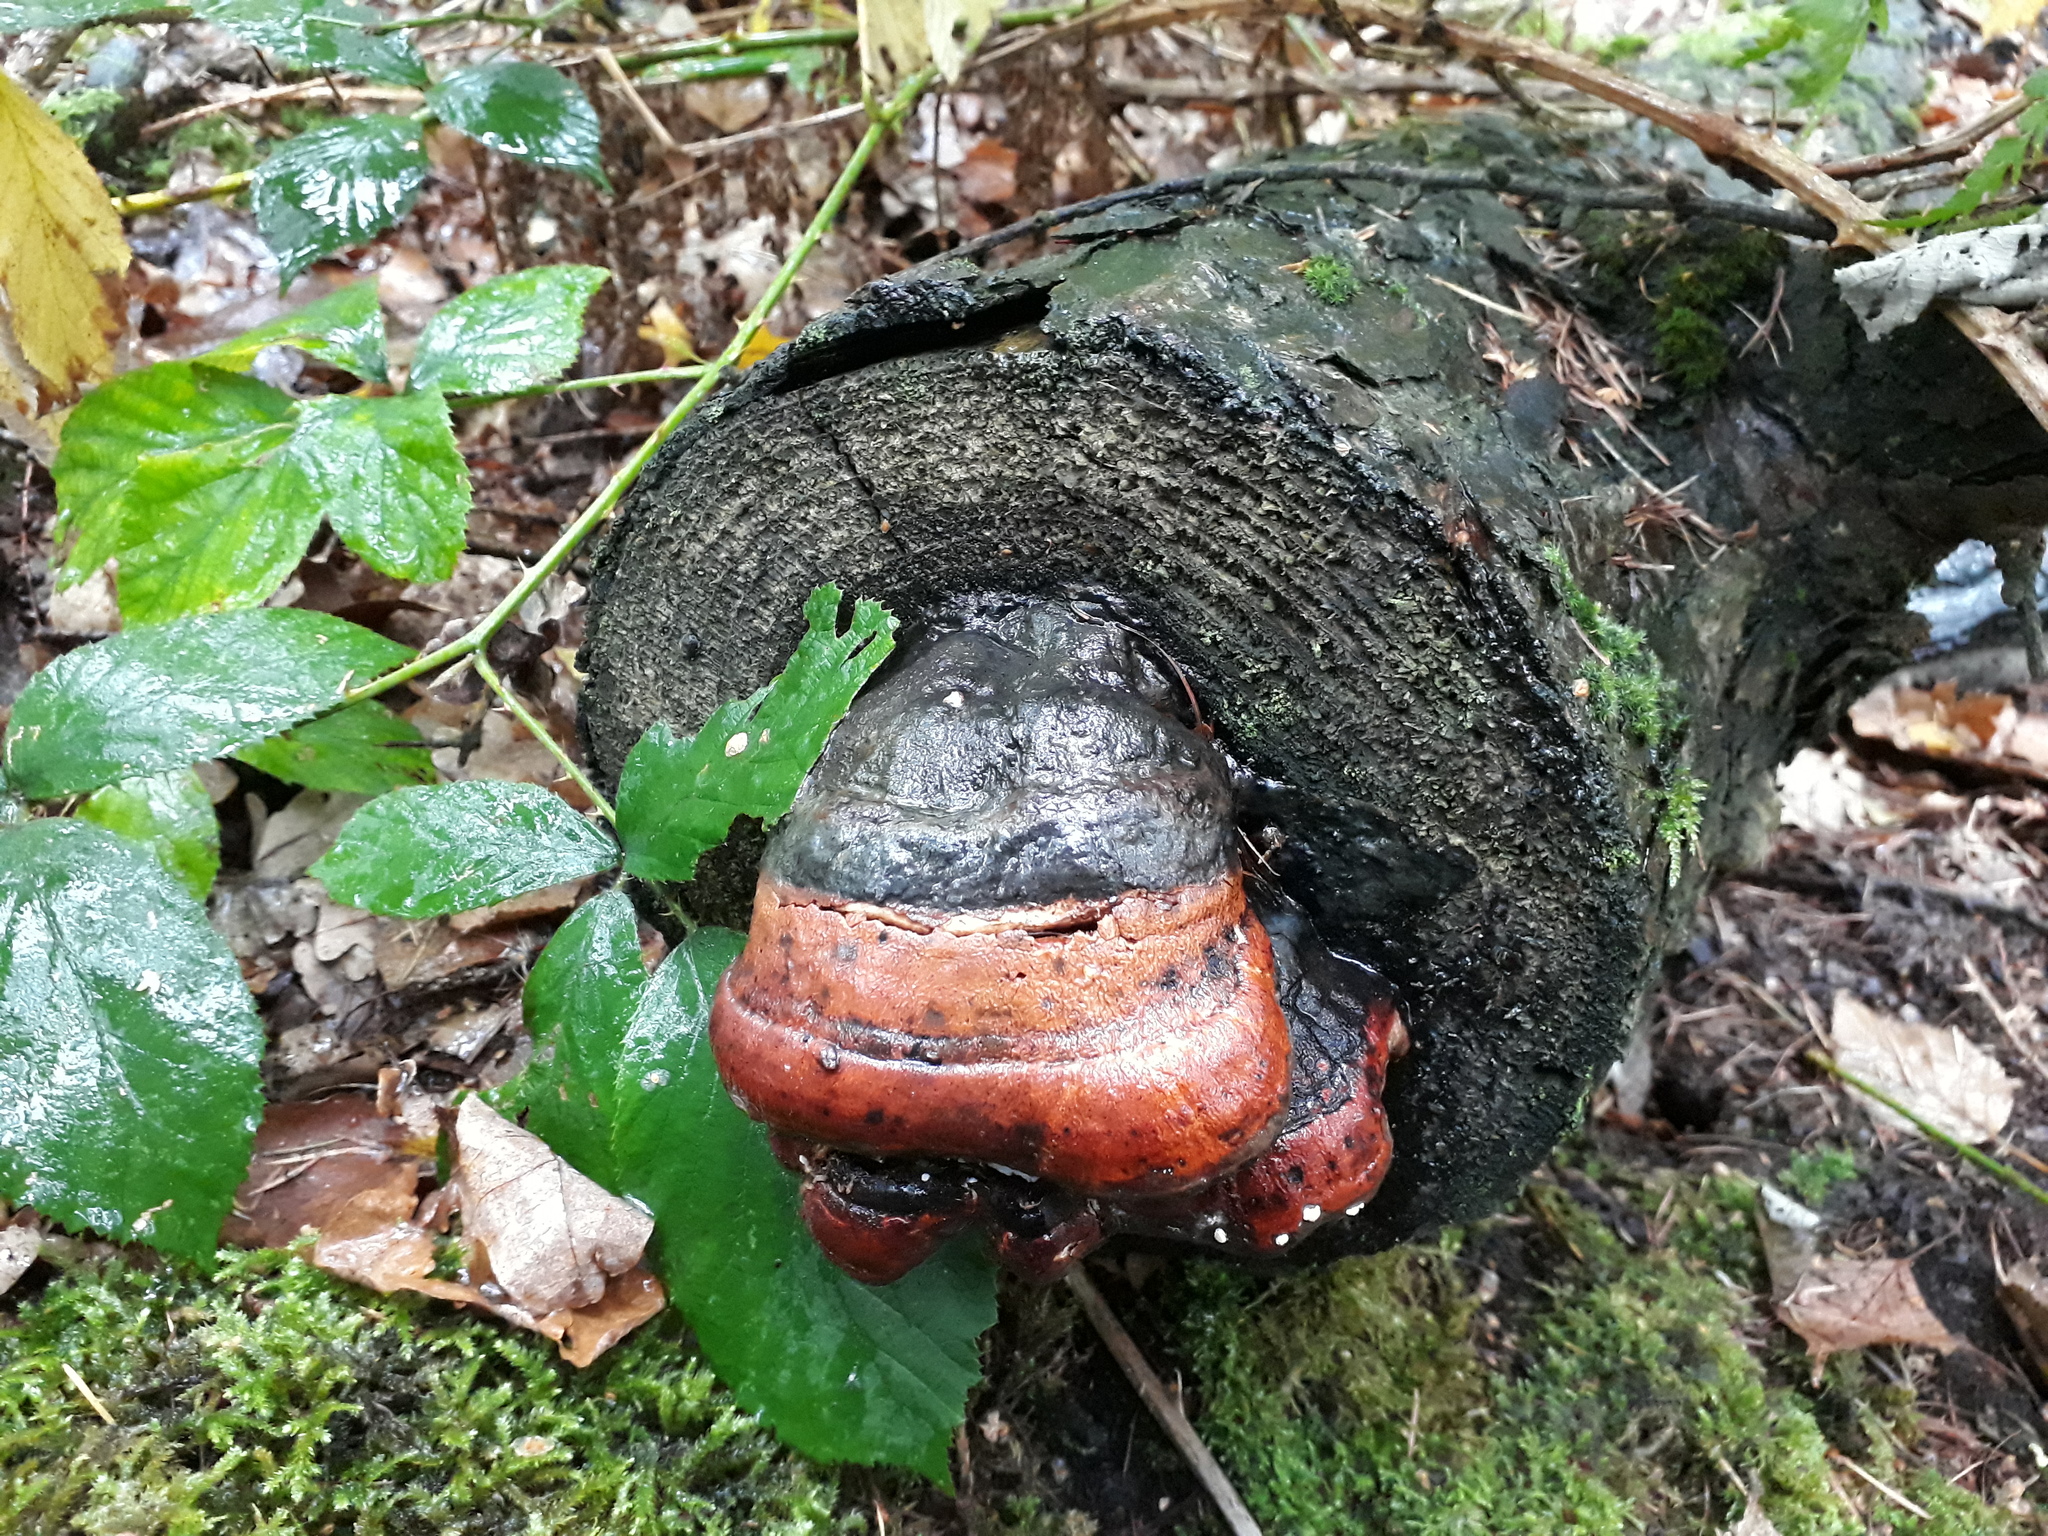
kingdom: Fungi
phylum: Basidiomycota
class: Agaricomycetes
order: Polyporales
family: Fomitopsidaceae
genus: Fomitopsis
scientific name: Fomitopsis pinicola
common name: Red-belted bracket
